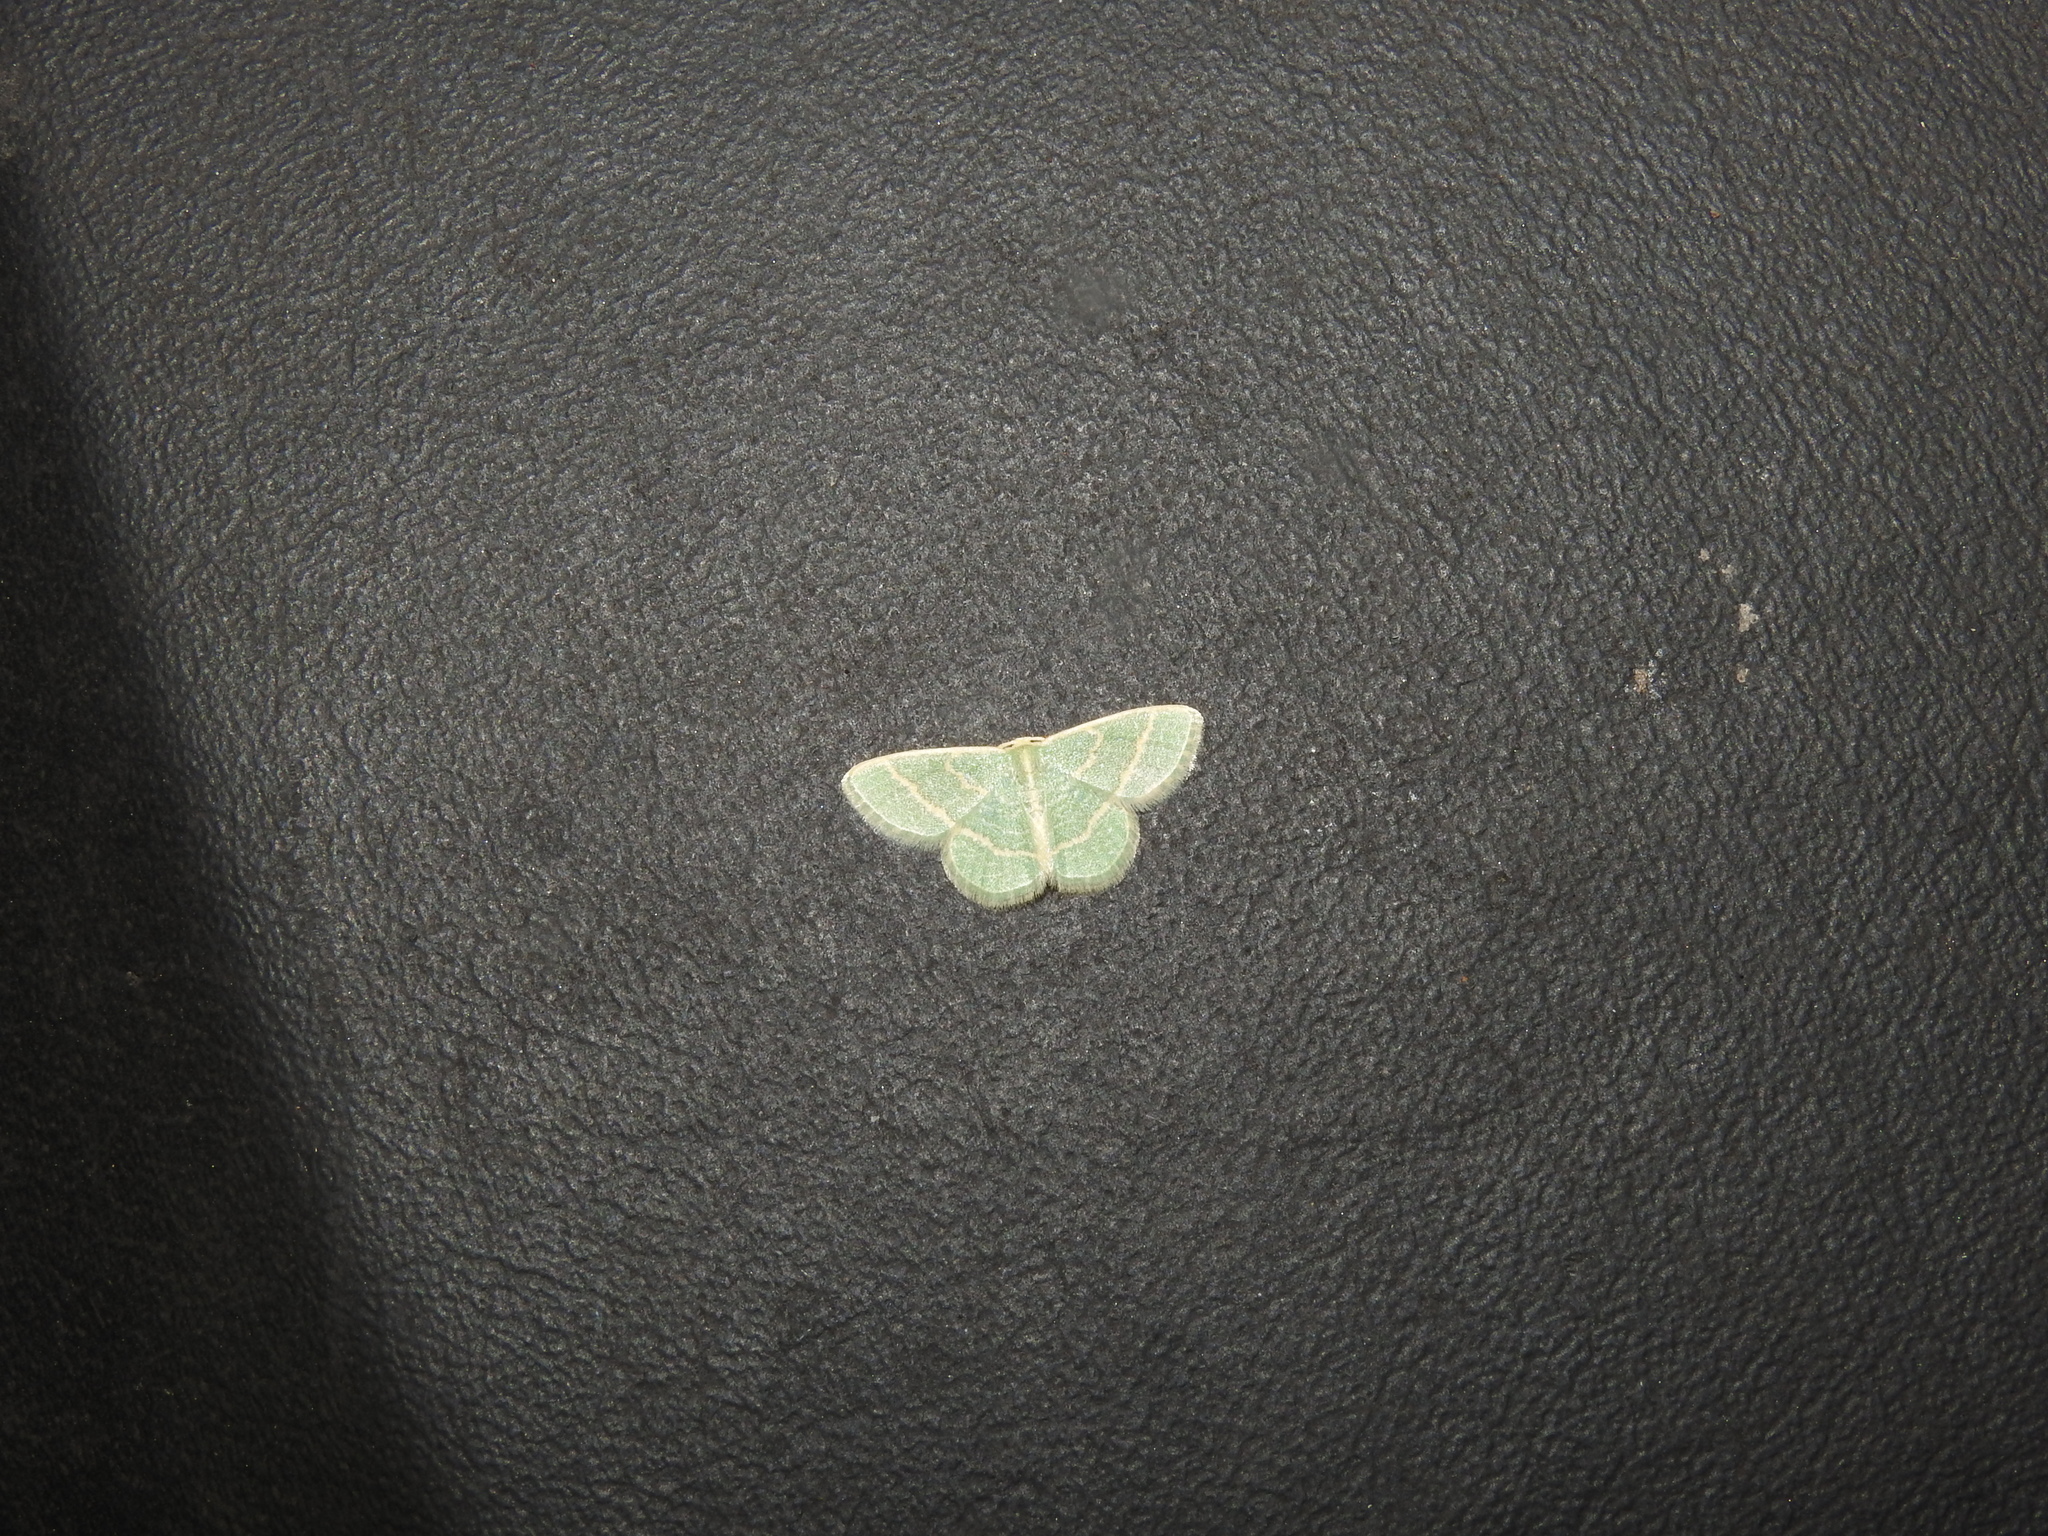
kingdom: Animalia
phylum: Arthropoda
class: Insecta
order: Lepidoptera
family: Geometridae
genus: Chlorochlamys
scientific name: Chlorochlamys chloroleucaria
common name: Blackberry looper
